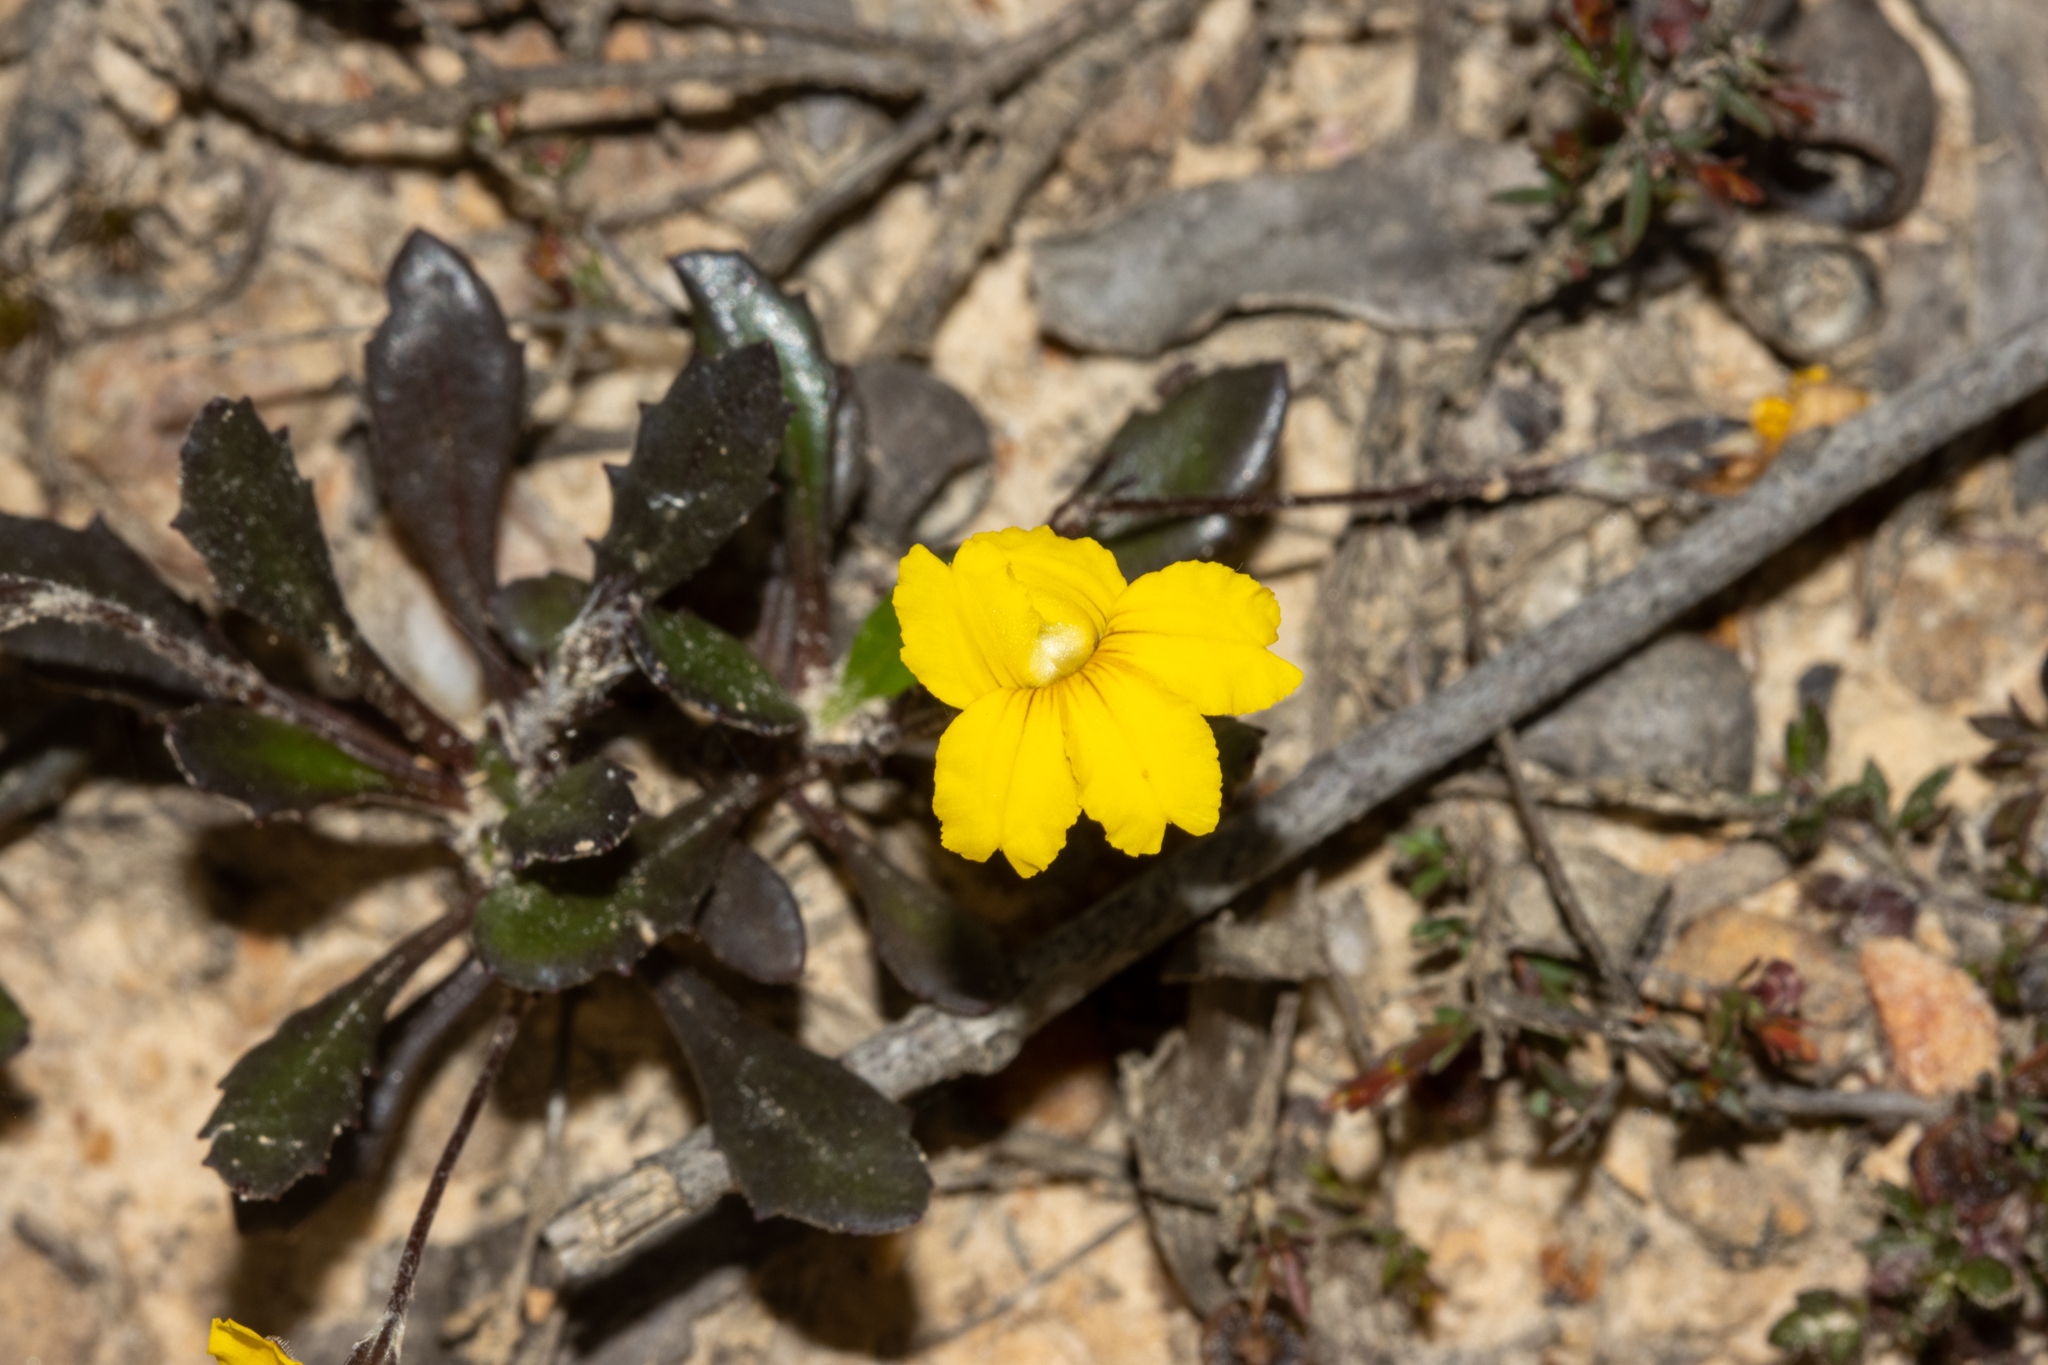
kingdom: Plantae
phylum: Tracheophyta
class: Magnoliopsida
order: Asterales
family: Goodeniaceae
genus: Goodenia
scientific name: Goodenia blackiana
